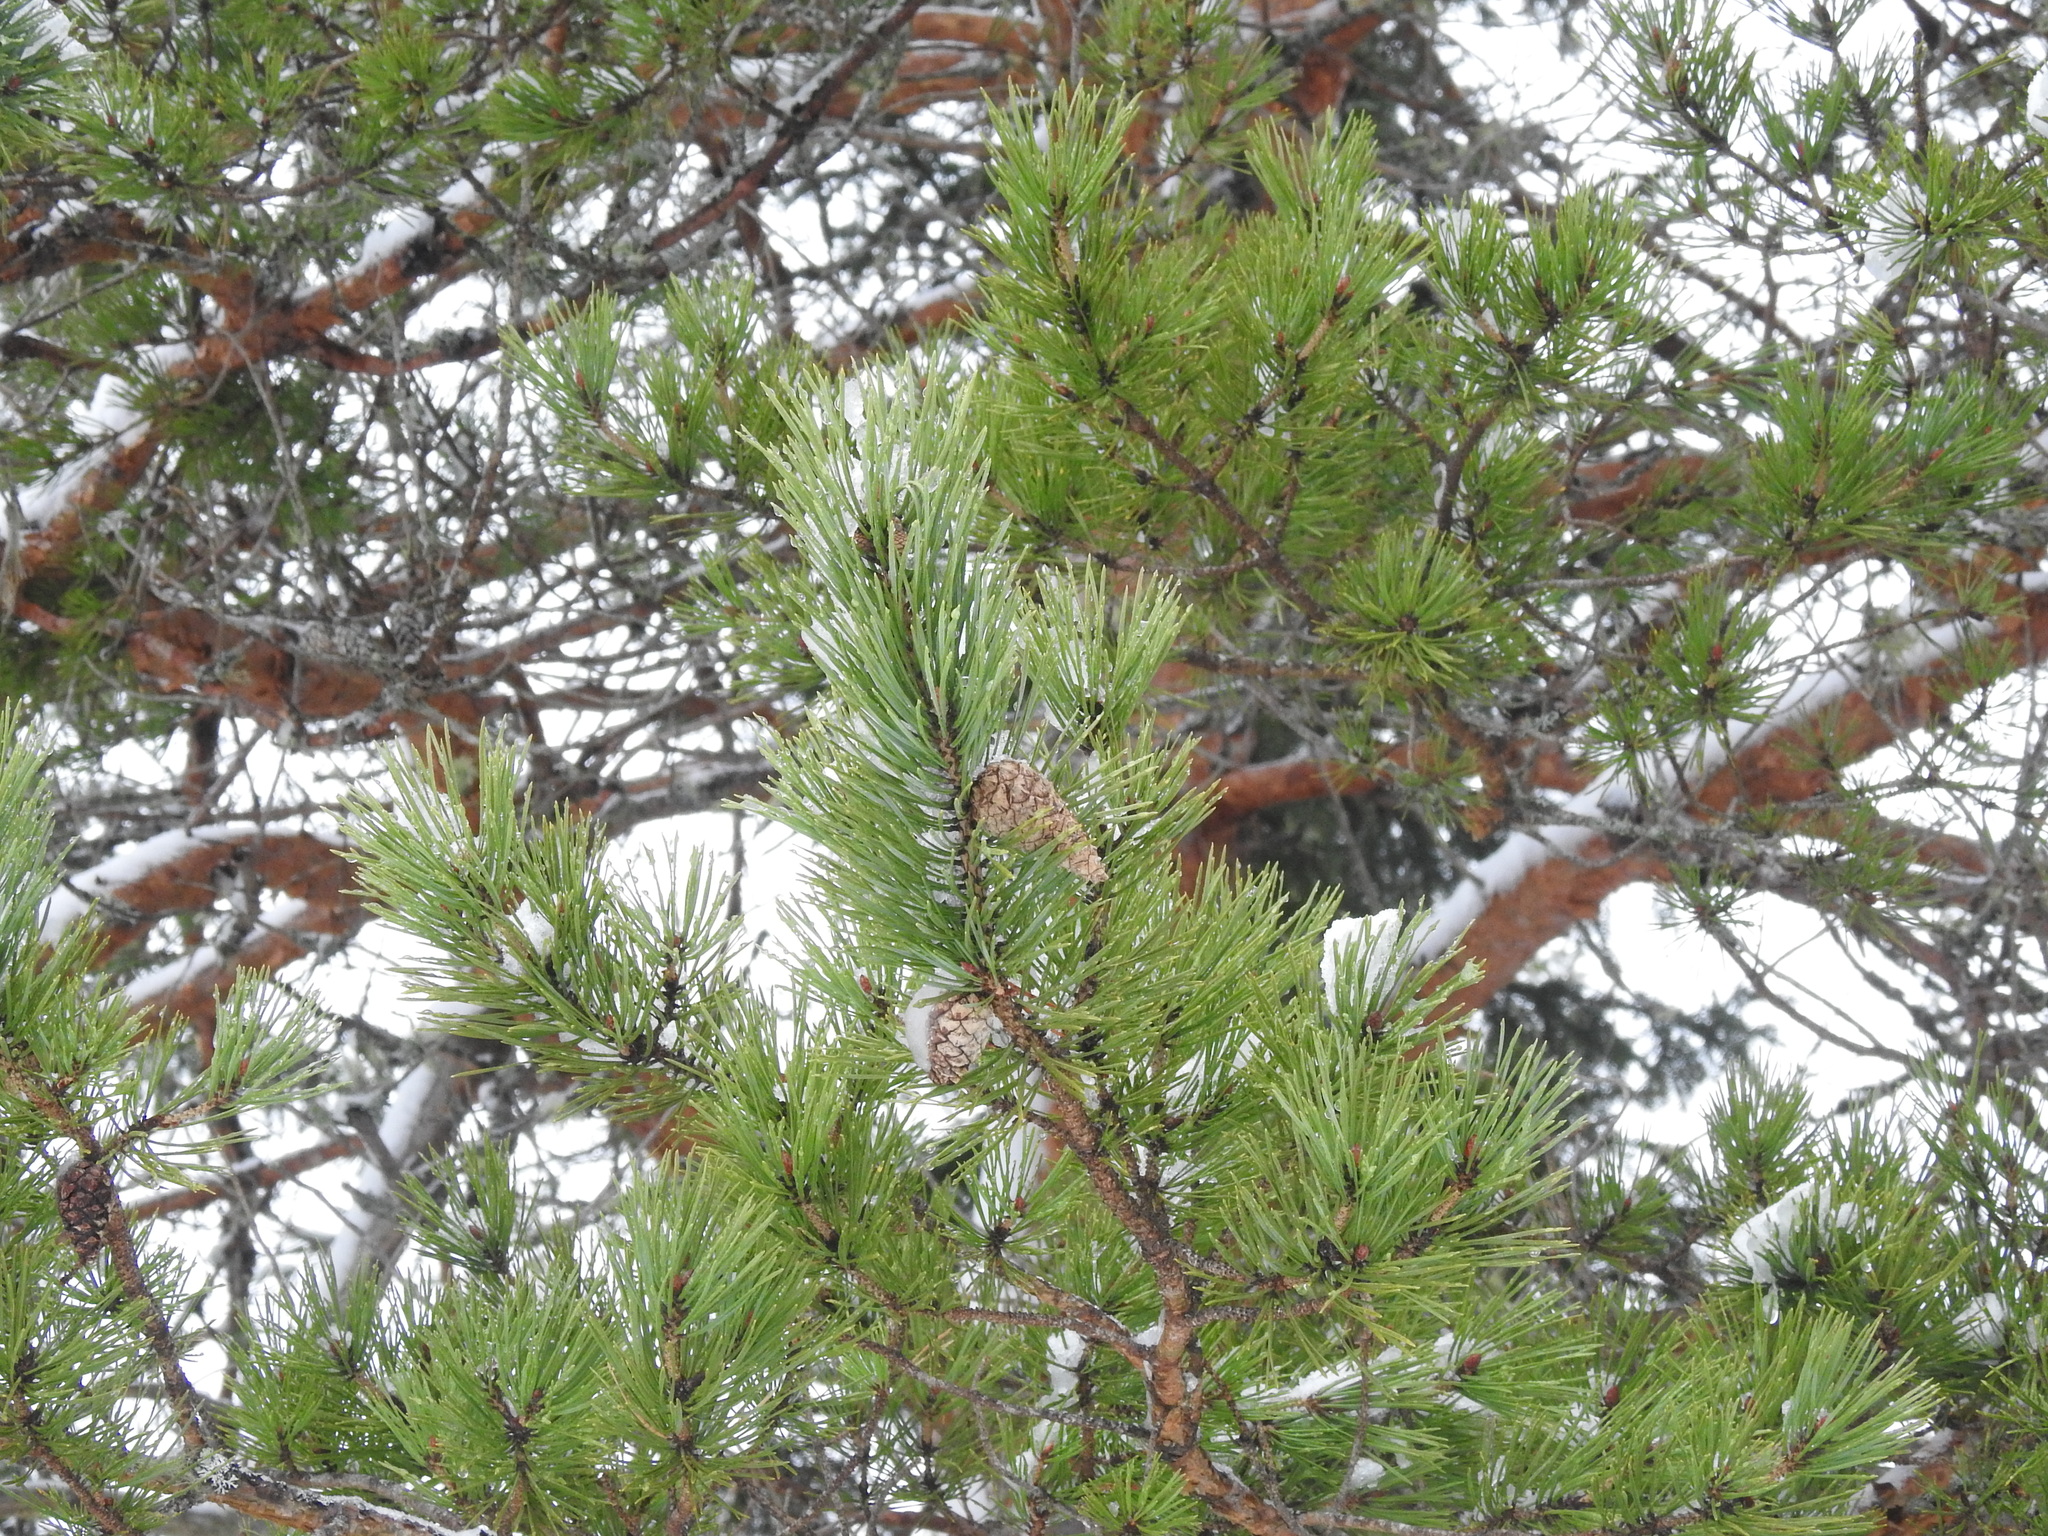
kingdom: Plantae
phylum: Tracheophyta
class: Pinopsida
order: Pinales
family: Pinaceae
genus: Pinus
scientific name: Pinus sylvestris
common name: Scots pine
